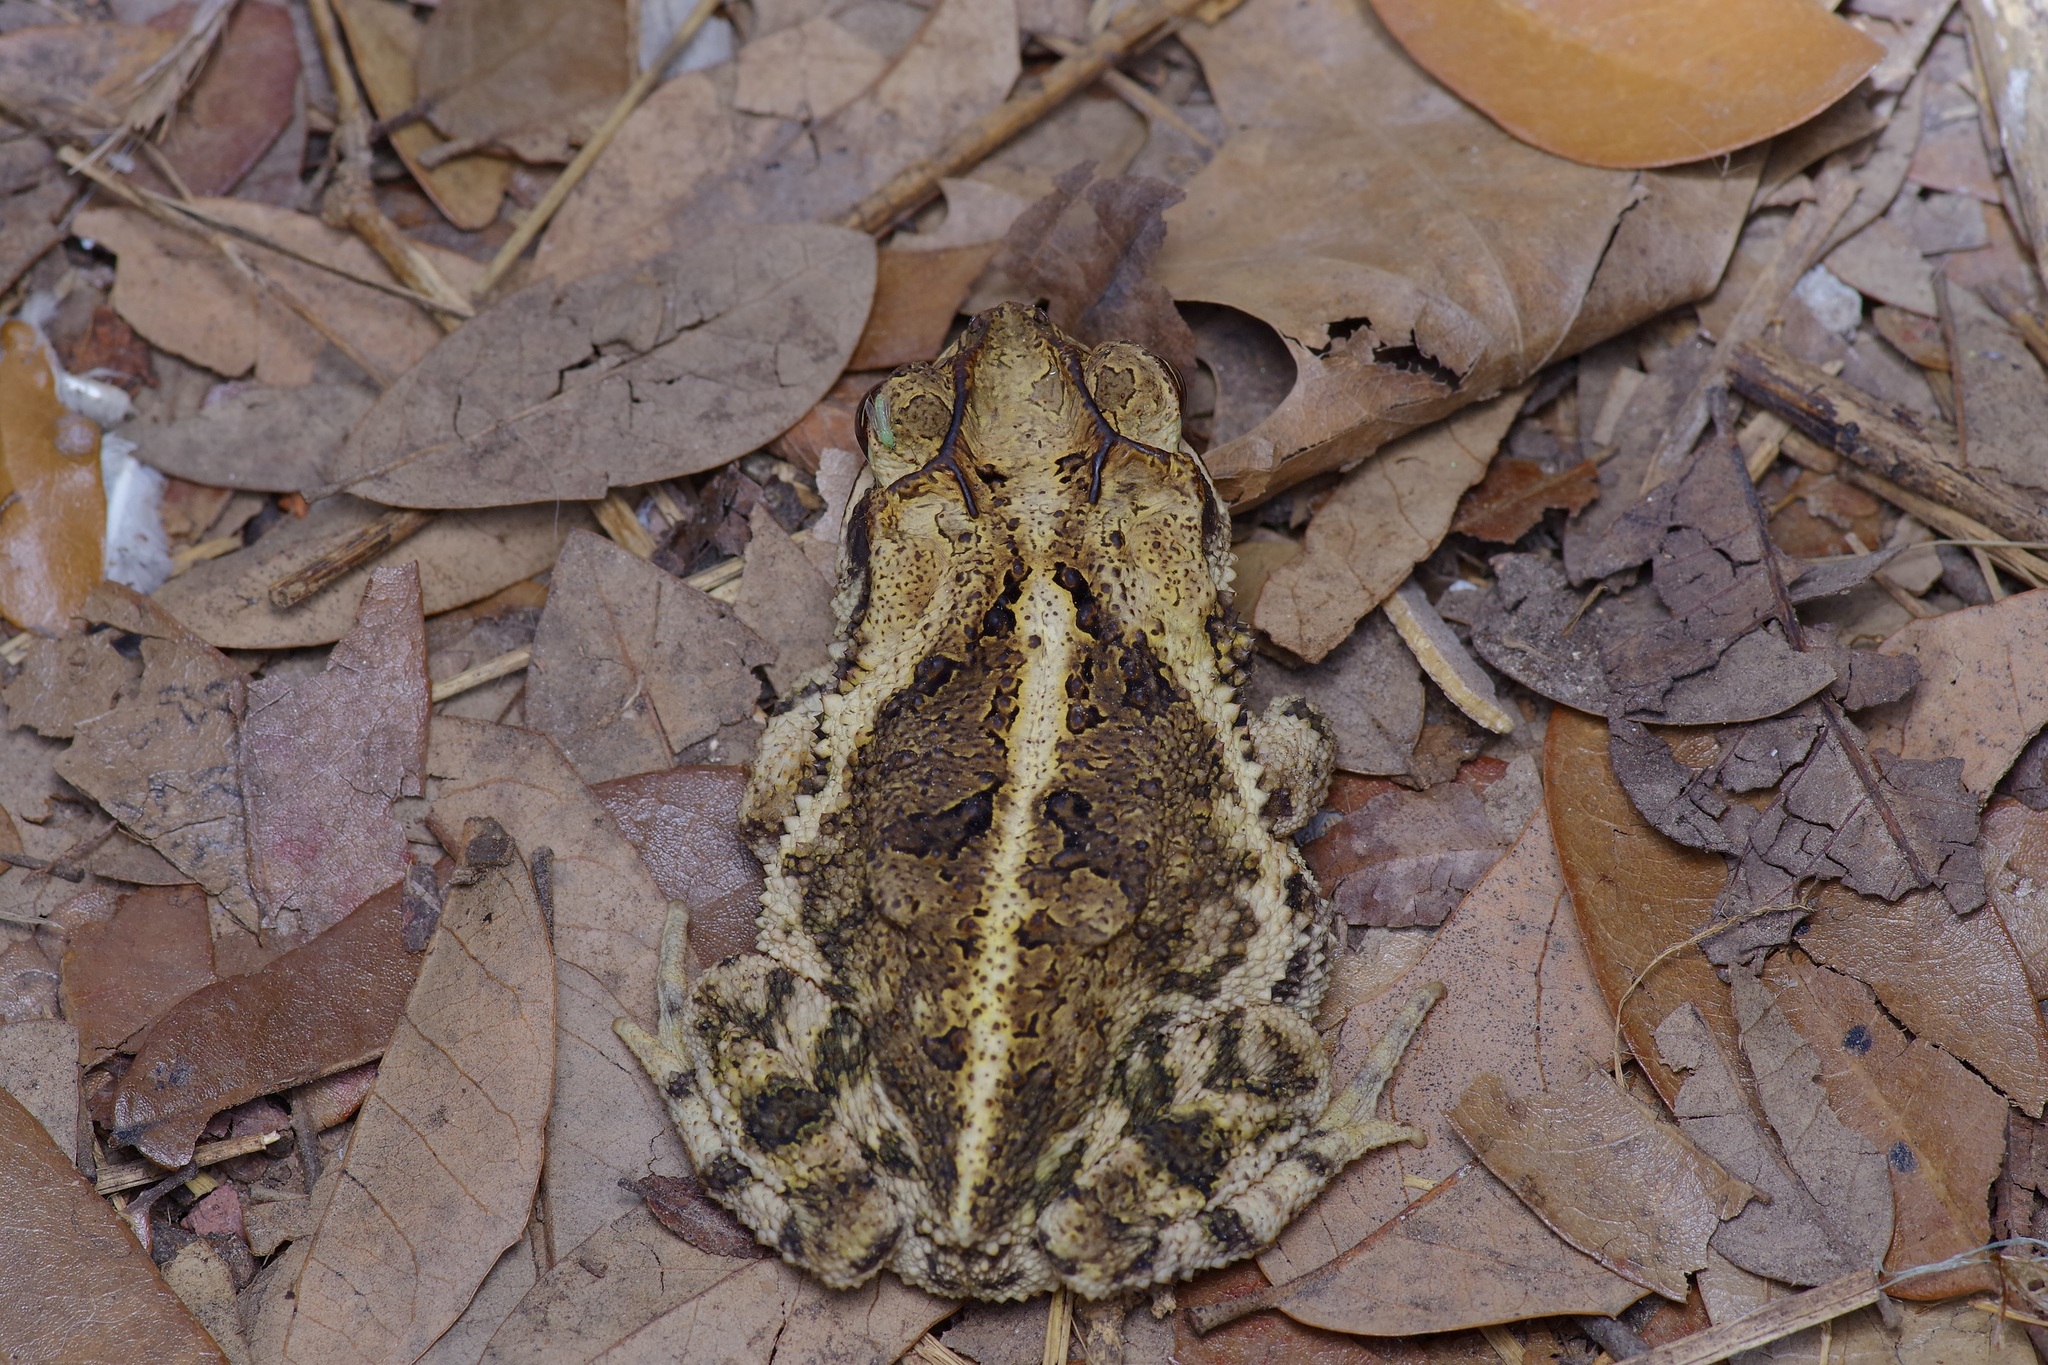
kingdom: Animalia
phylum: Chordata
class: Amphibia
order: Anura
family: Bufonidae
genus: Incilius
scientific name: Incilius nebulifer
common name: Gulf coast toad
